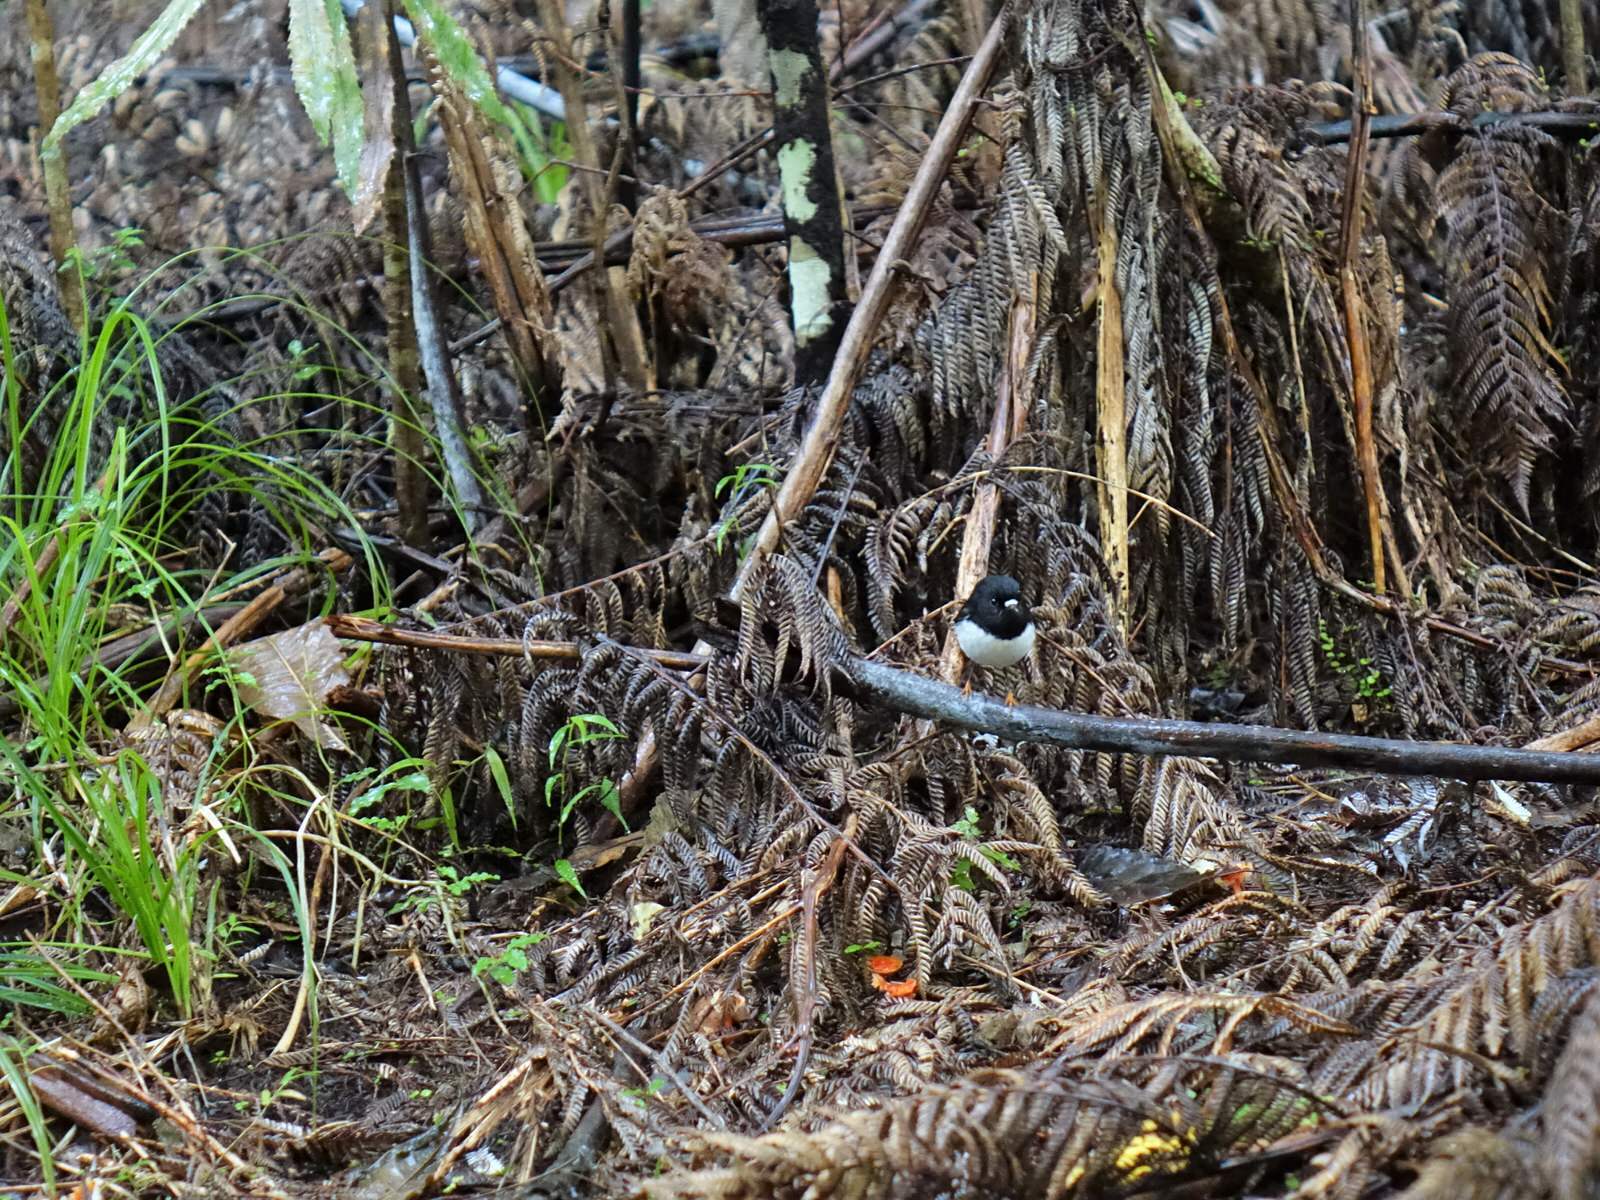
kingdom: Animalia
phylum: Chordata
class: Aves
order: Passeriformes
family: Petroicidae
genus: Petroica
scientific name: Petroica macrocephala
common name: Tomtit
